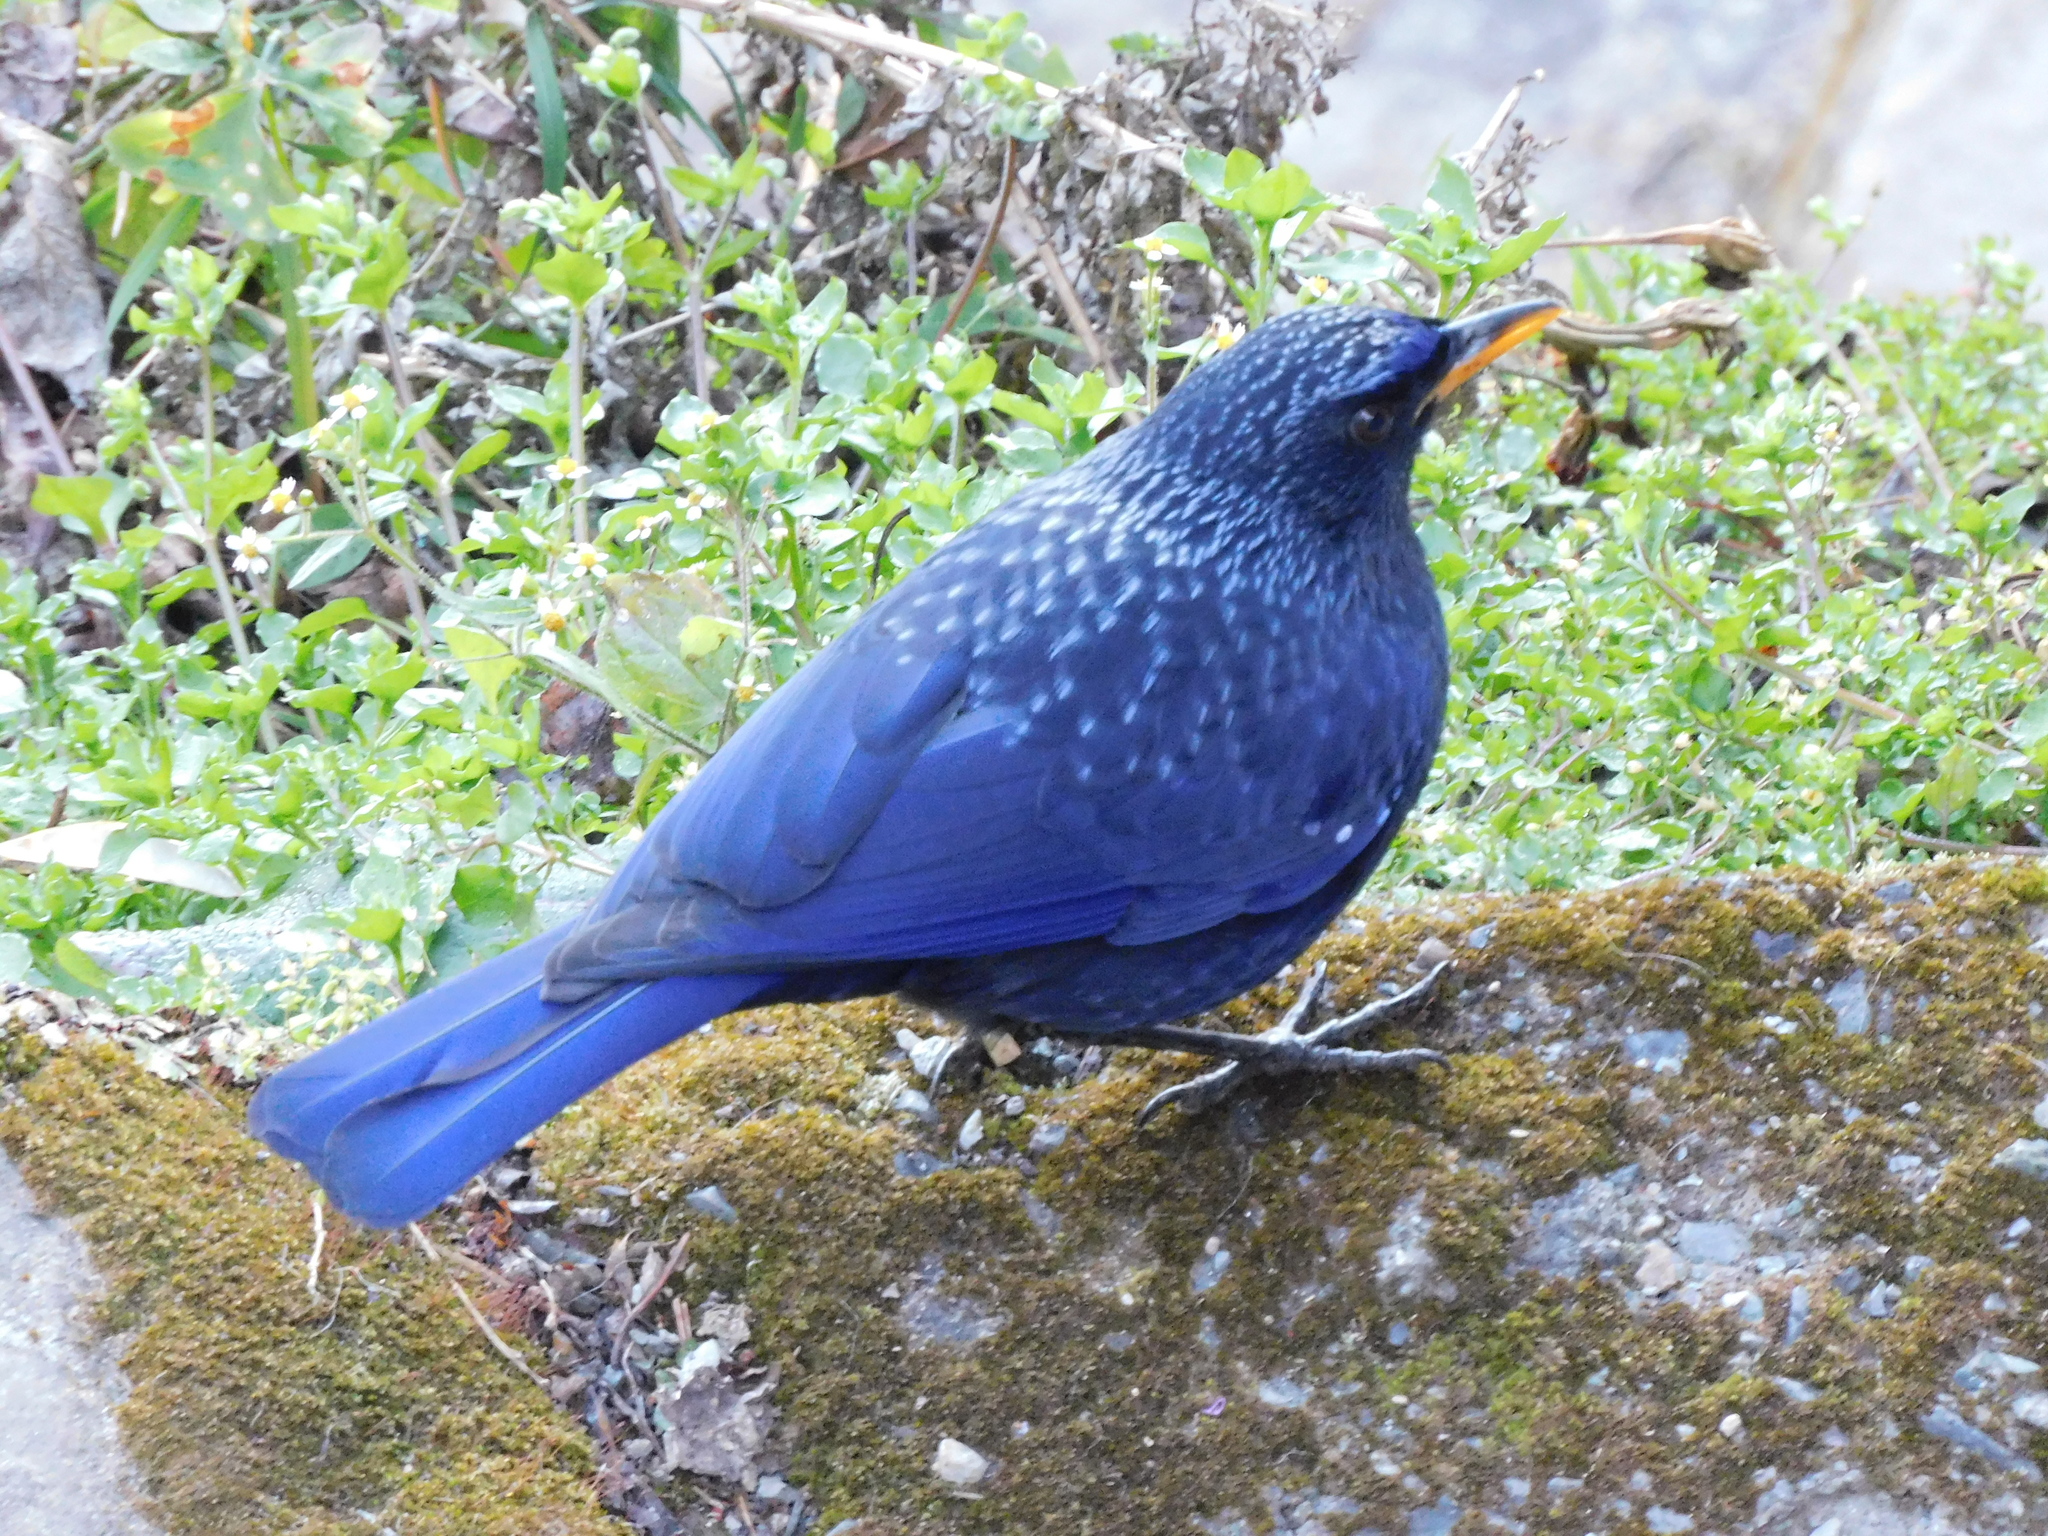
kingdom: Animalia
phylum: Chordata
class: Aves
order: Passeriformes
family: Muscicapidae
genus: Myophonus
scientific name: Myophonus caeruleus
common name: Blue whistling-thrush
